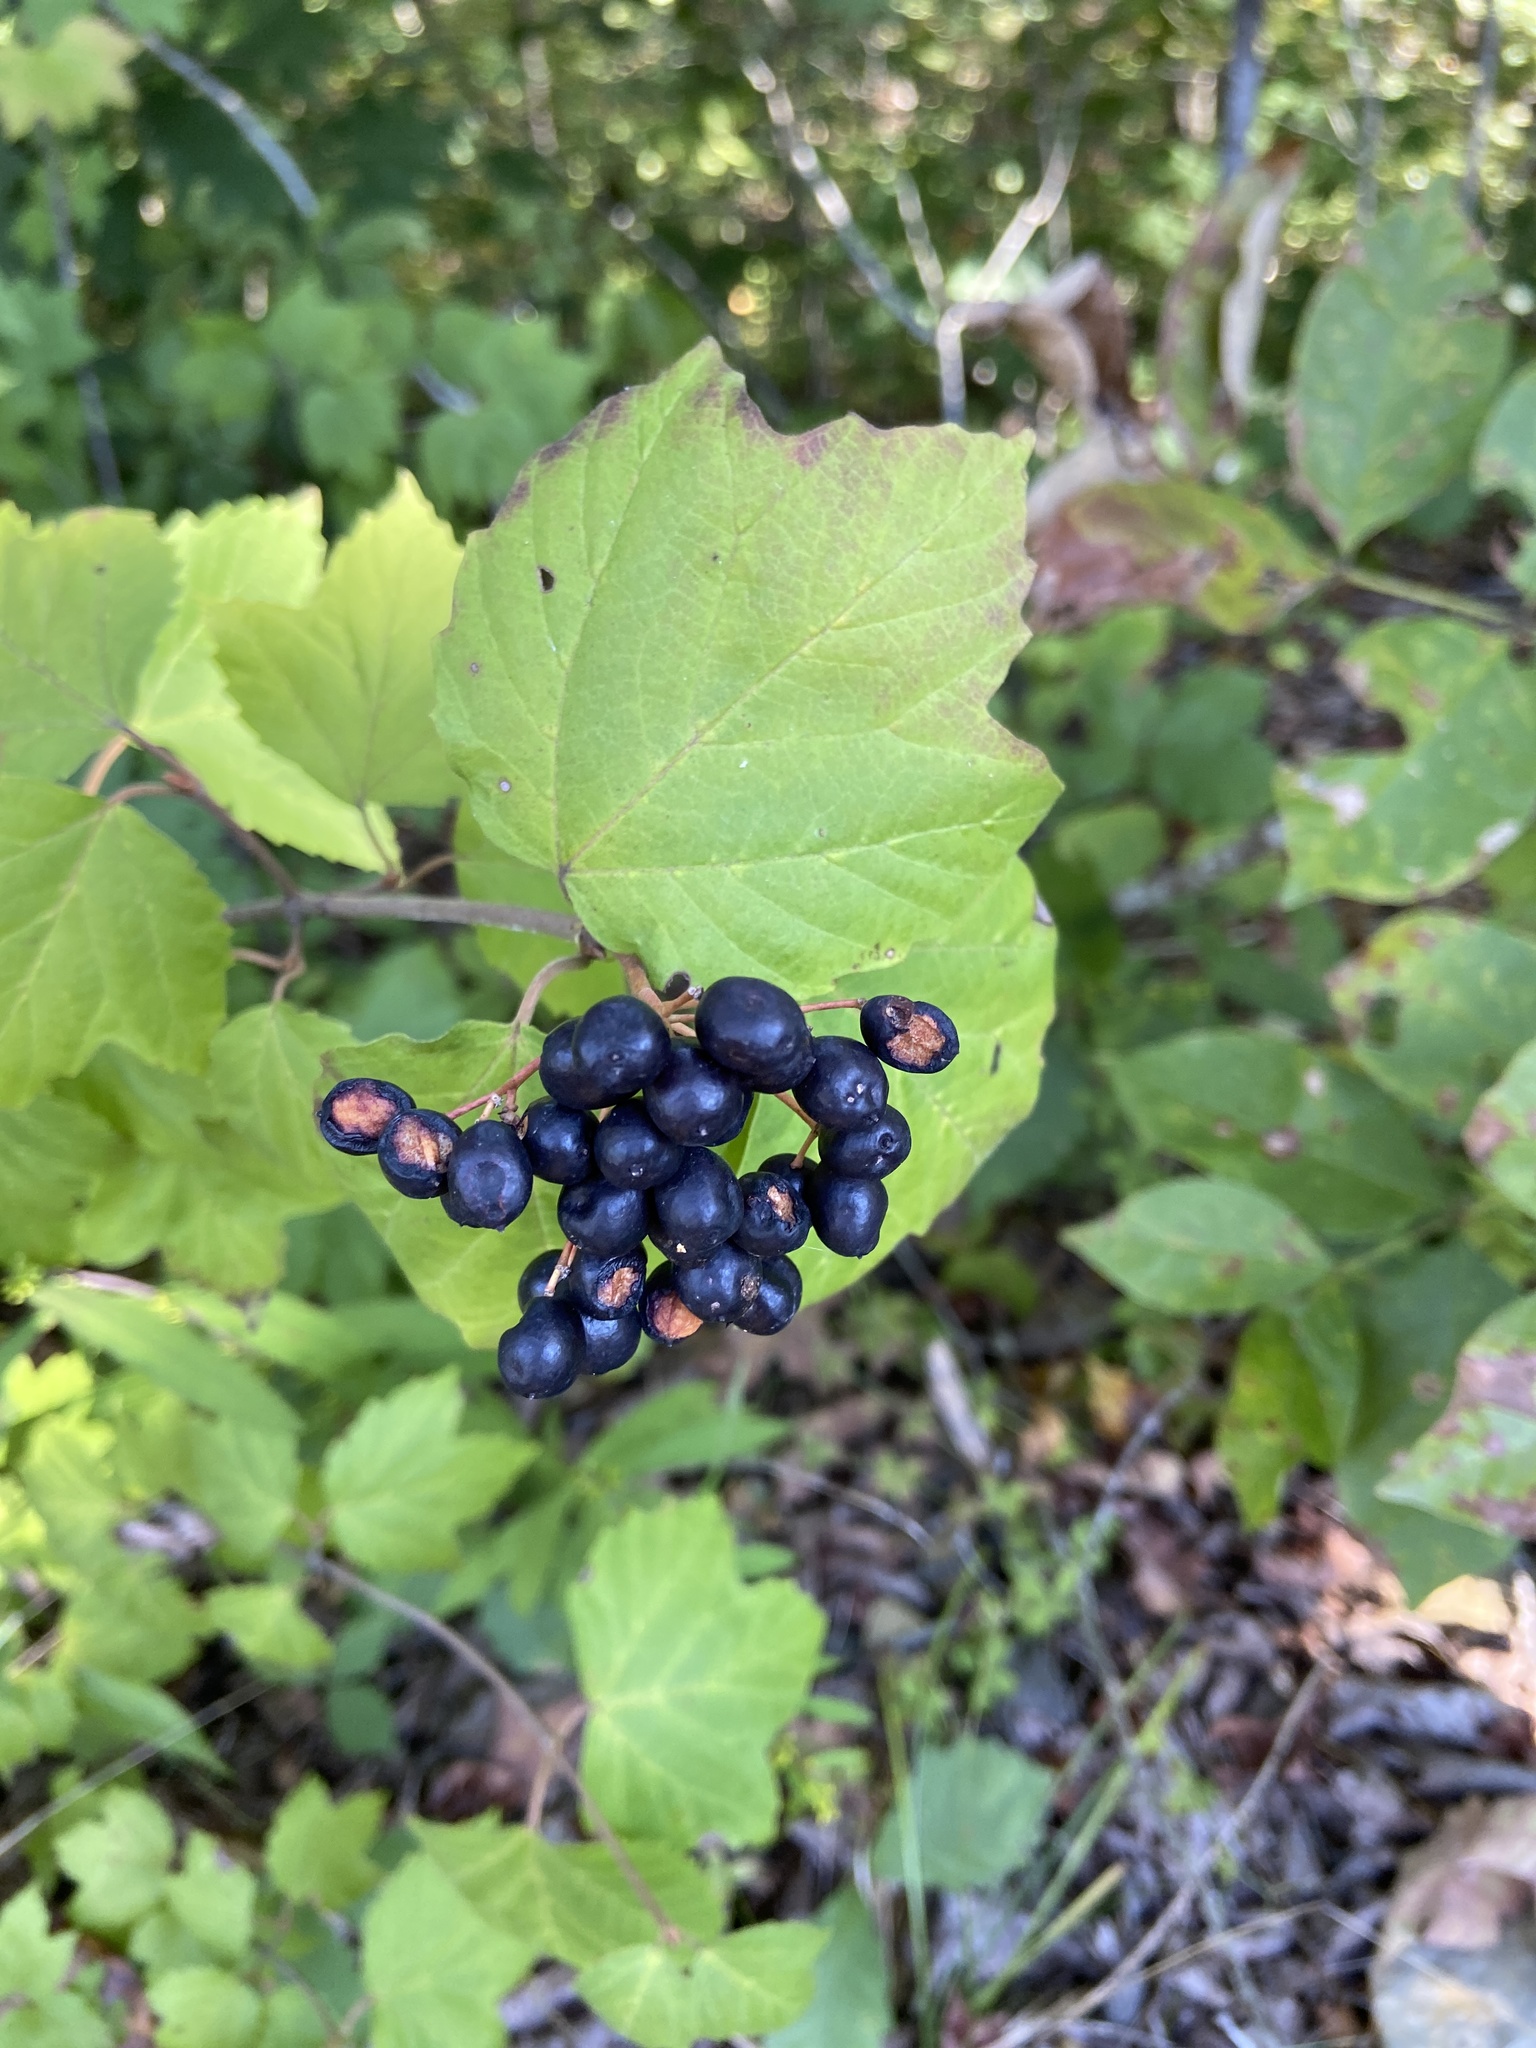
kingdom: Plantae
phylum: Tracheophyta
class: Magnoliopsida
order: Dipsacales
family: Viburnaceae
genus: Viburnum
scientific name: Viburnum acerifolium
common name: Dockmackie
